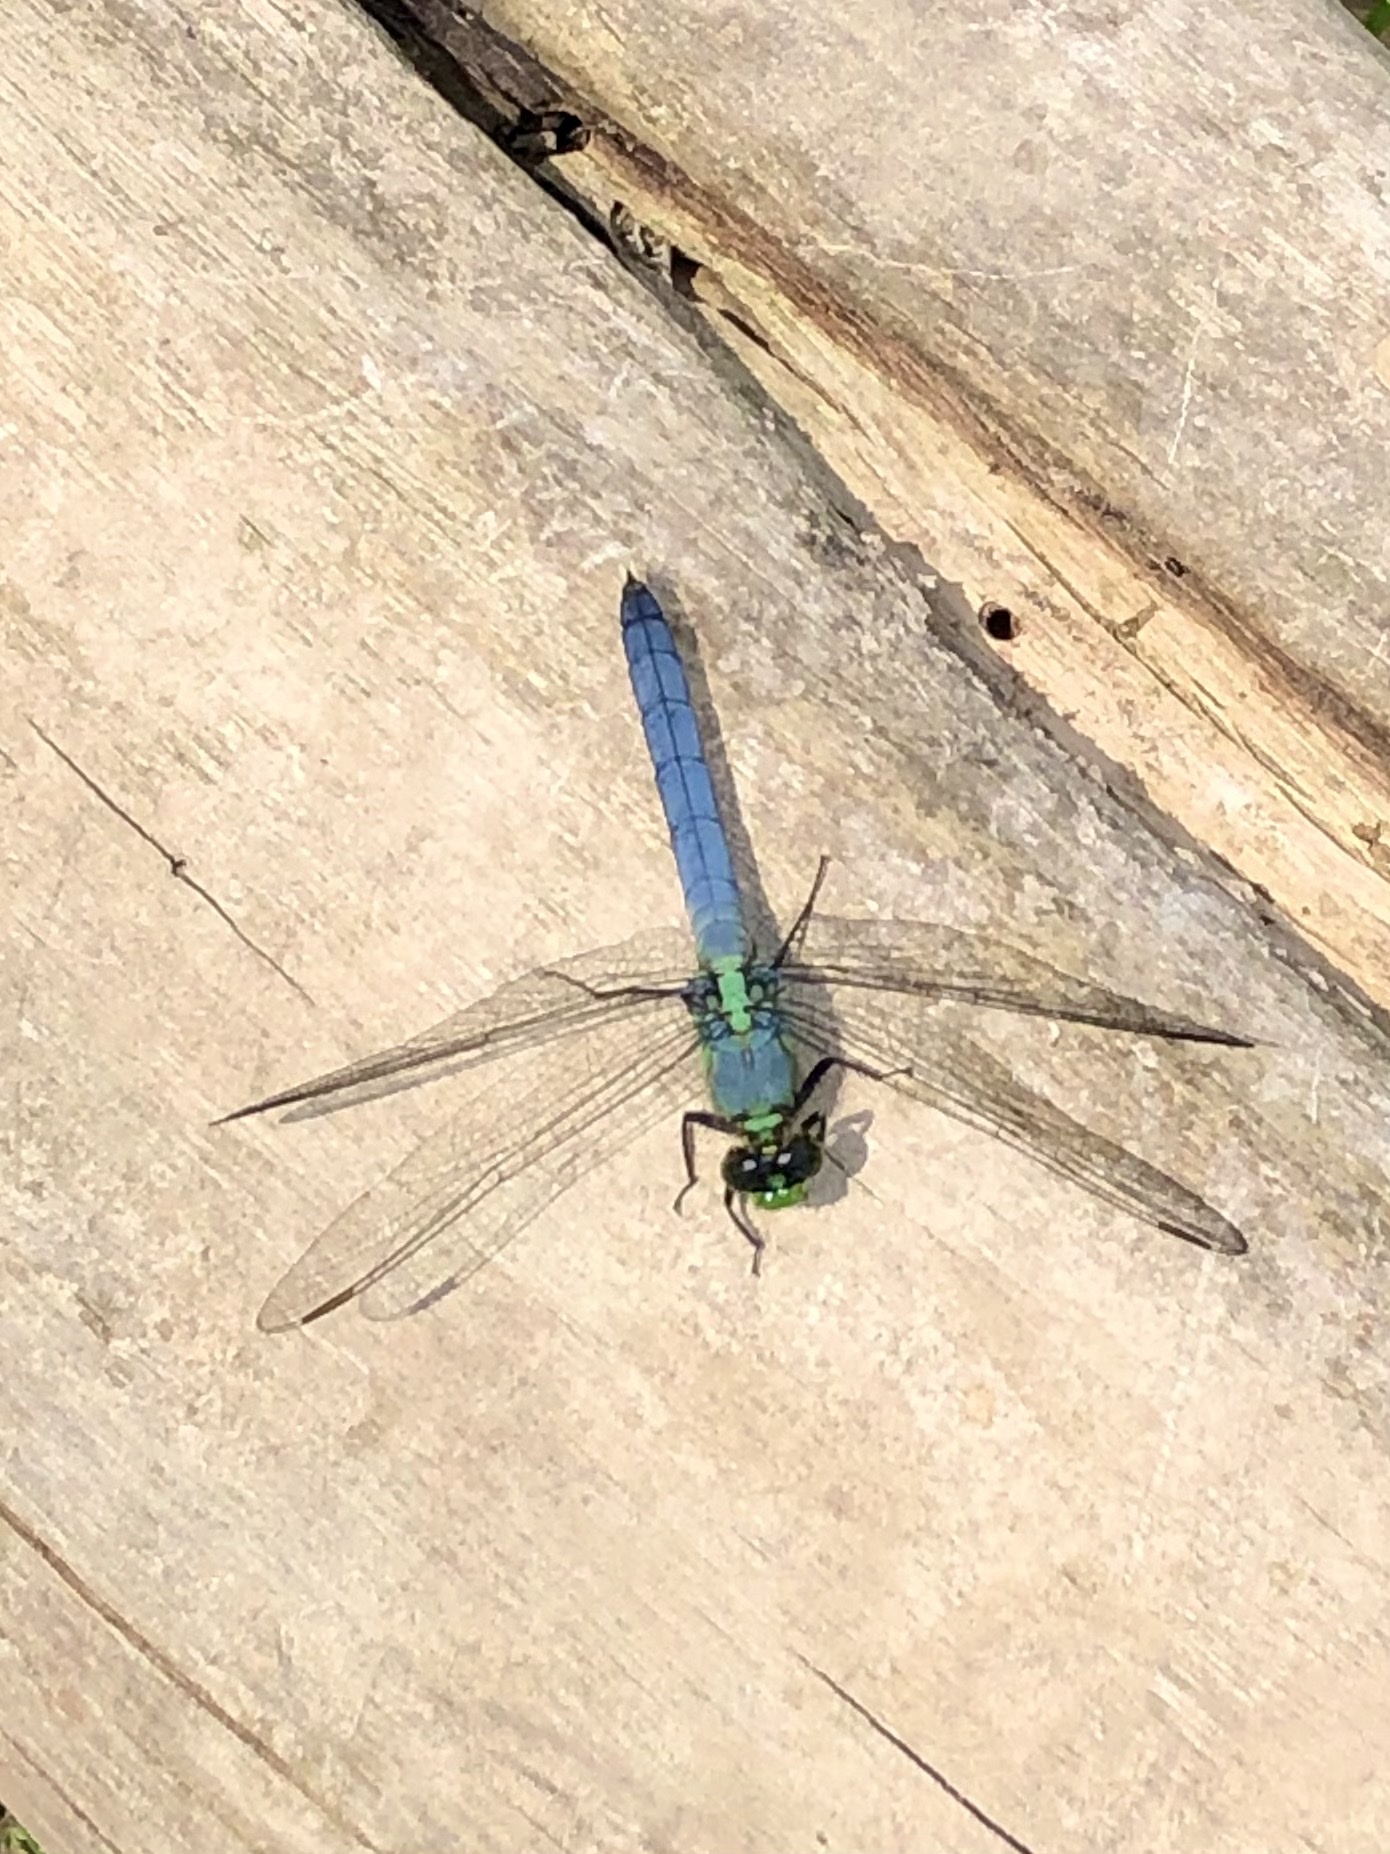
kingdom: Animalia
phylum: Arthropoda
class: Insecta
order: Odonata
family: Libellulidae
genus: Erythemis
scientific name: Erythemis simplicicollis
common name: Eastern pondhawk
